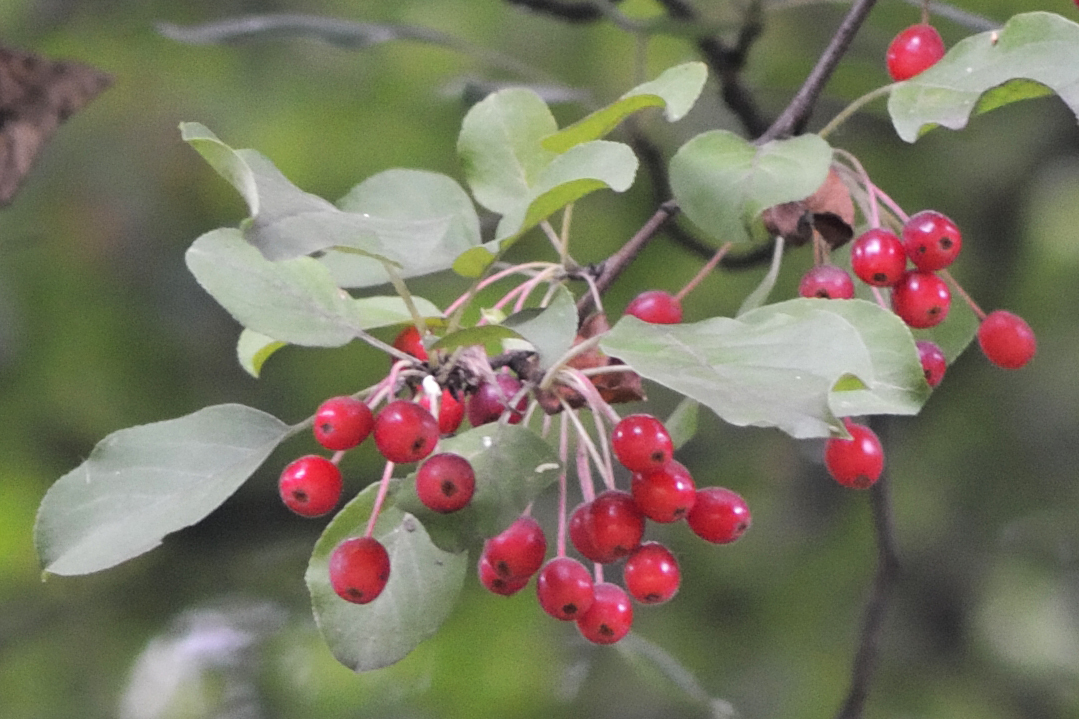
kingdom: Plantae
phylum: Tracheophyta
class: Magnoliopsida
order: Rosales
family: Rosaceae
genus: Malus
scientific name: Malus baccata
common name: Siberian crab
